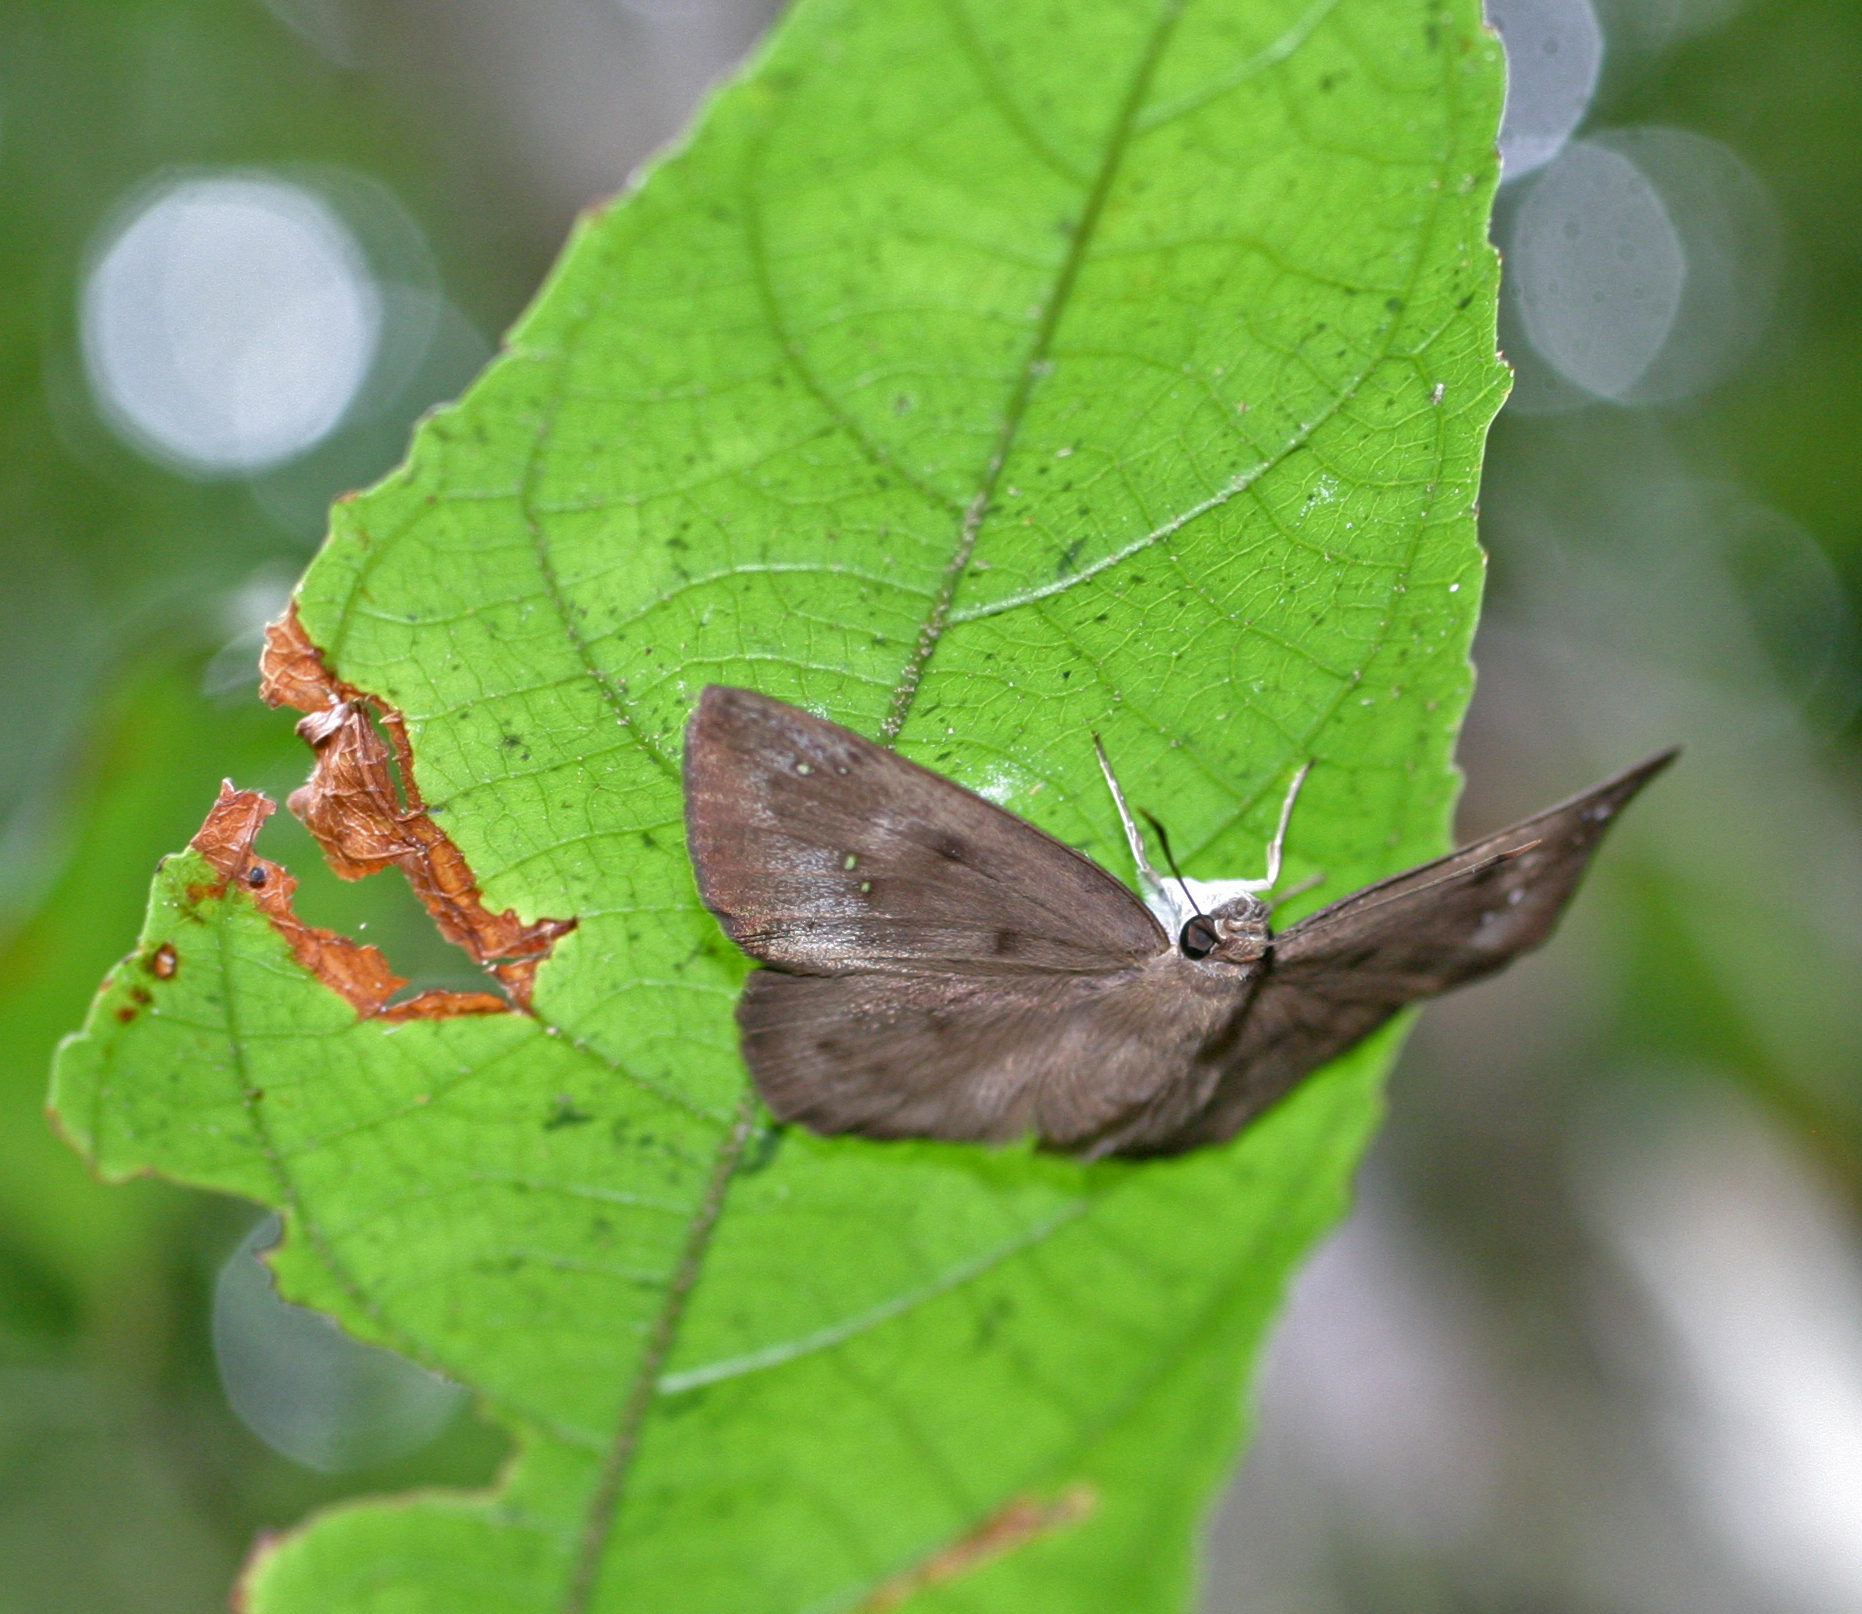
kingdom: Animalia
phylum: Arthropoda
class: Insecta
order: Lepidoptera
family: Hesperiidae
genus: Tagiades
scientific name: Tagiades japetus
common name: Pied flat
